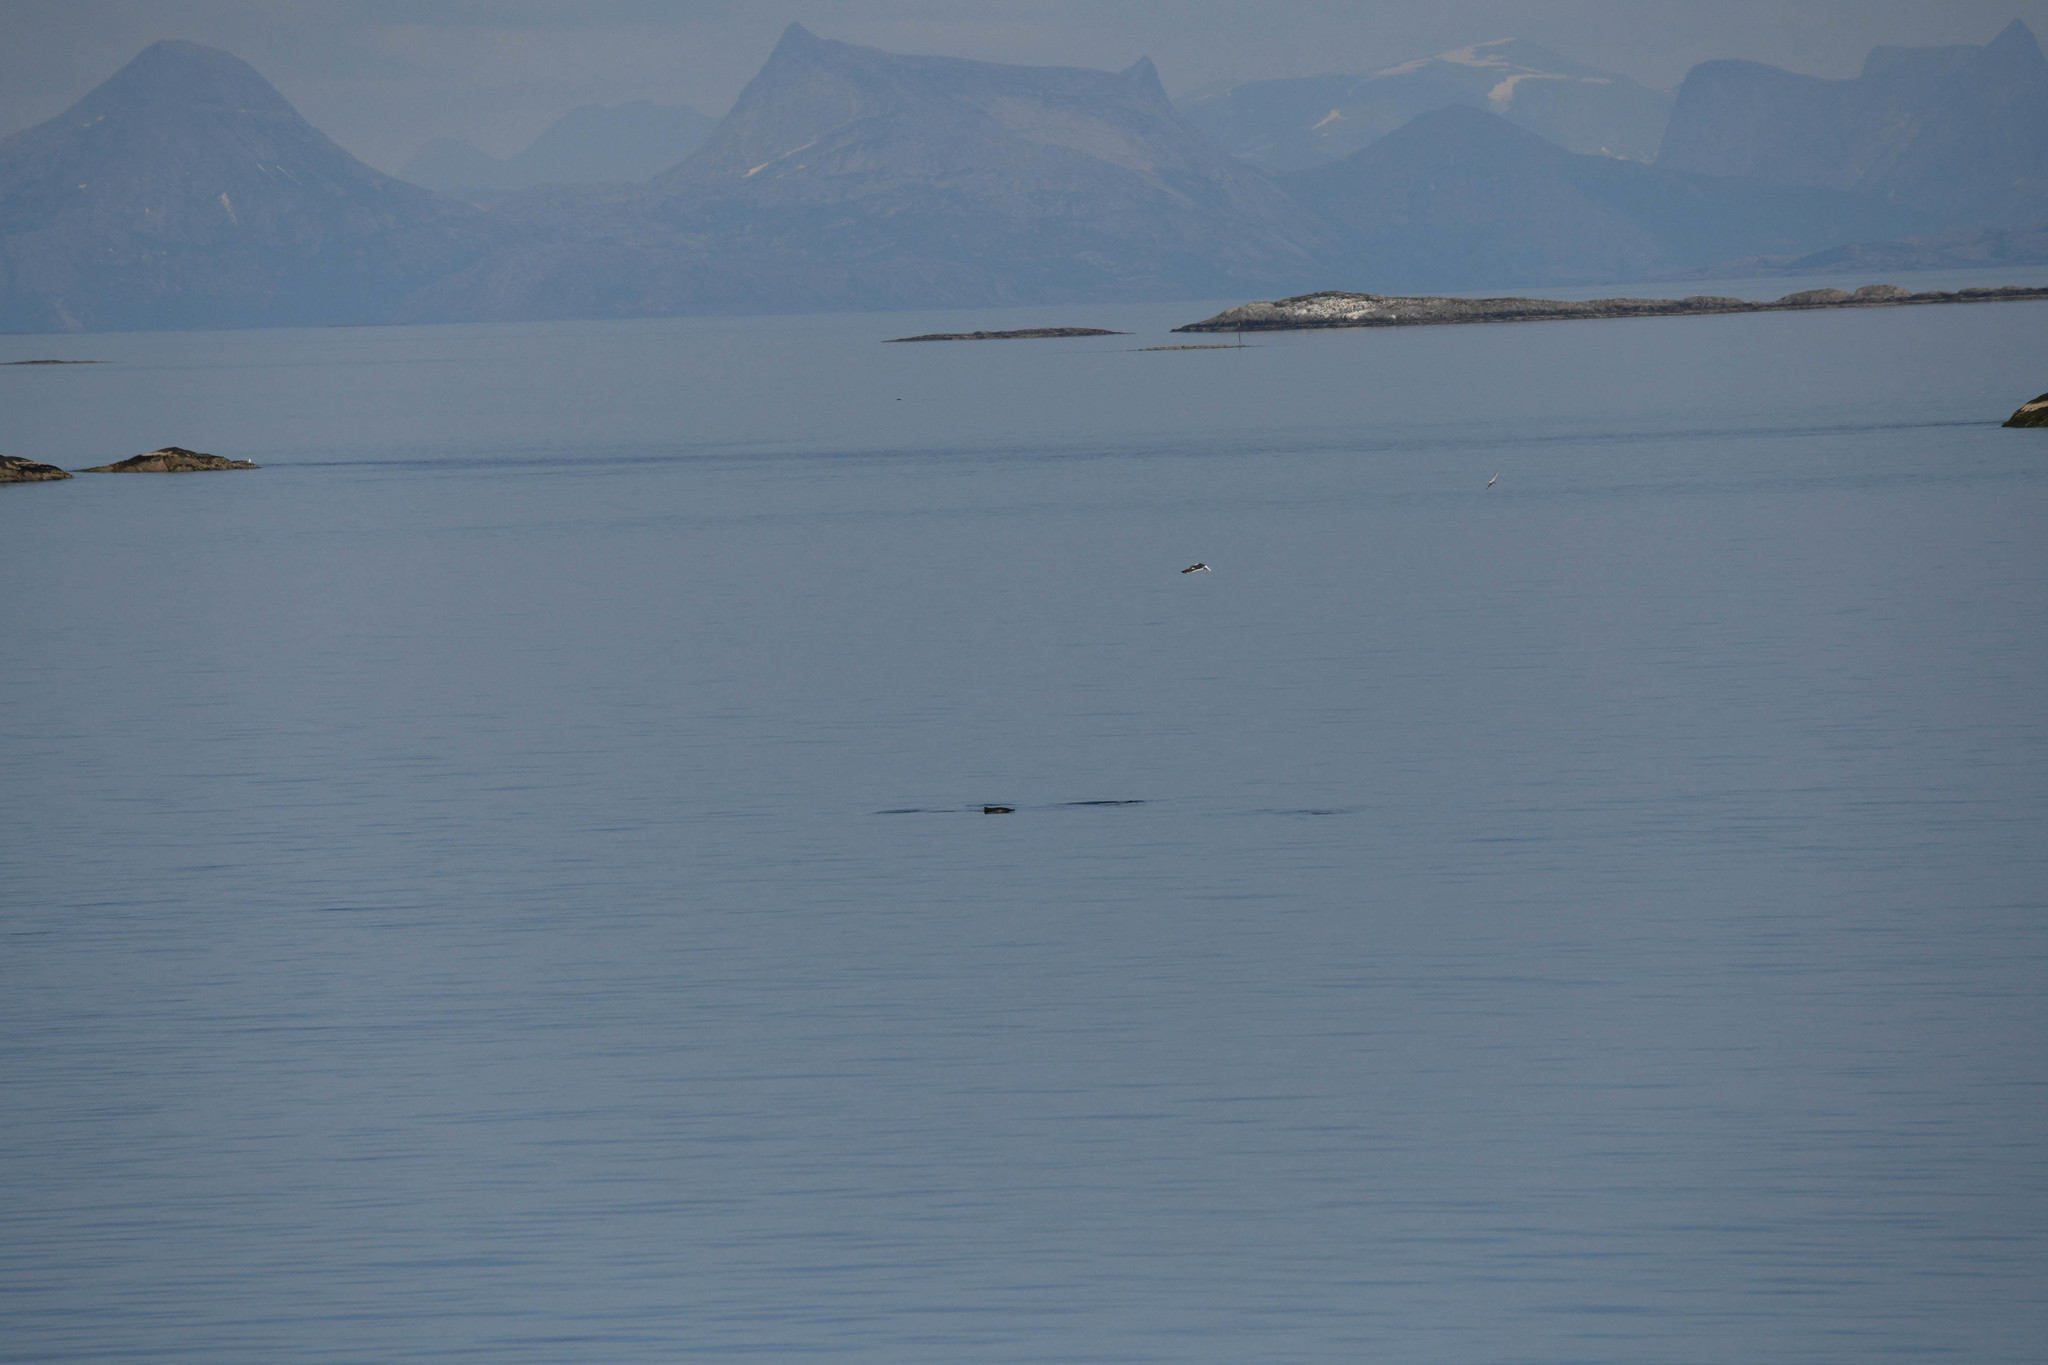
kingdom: Animalia
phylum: Chordata
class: Mammalia
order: Cetacea
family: Phocoenidae
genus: Phocoena
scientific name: Phocoena phocoena
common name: Harbor porpoise
